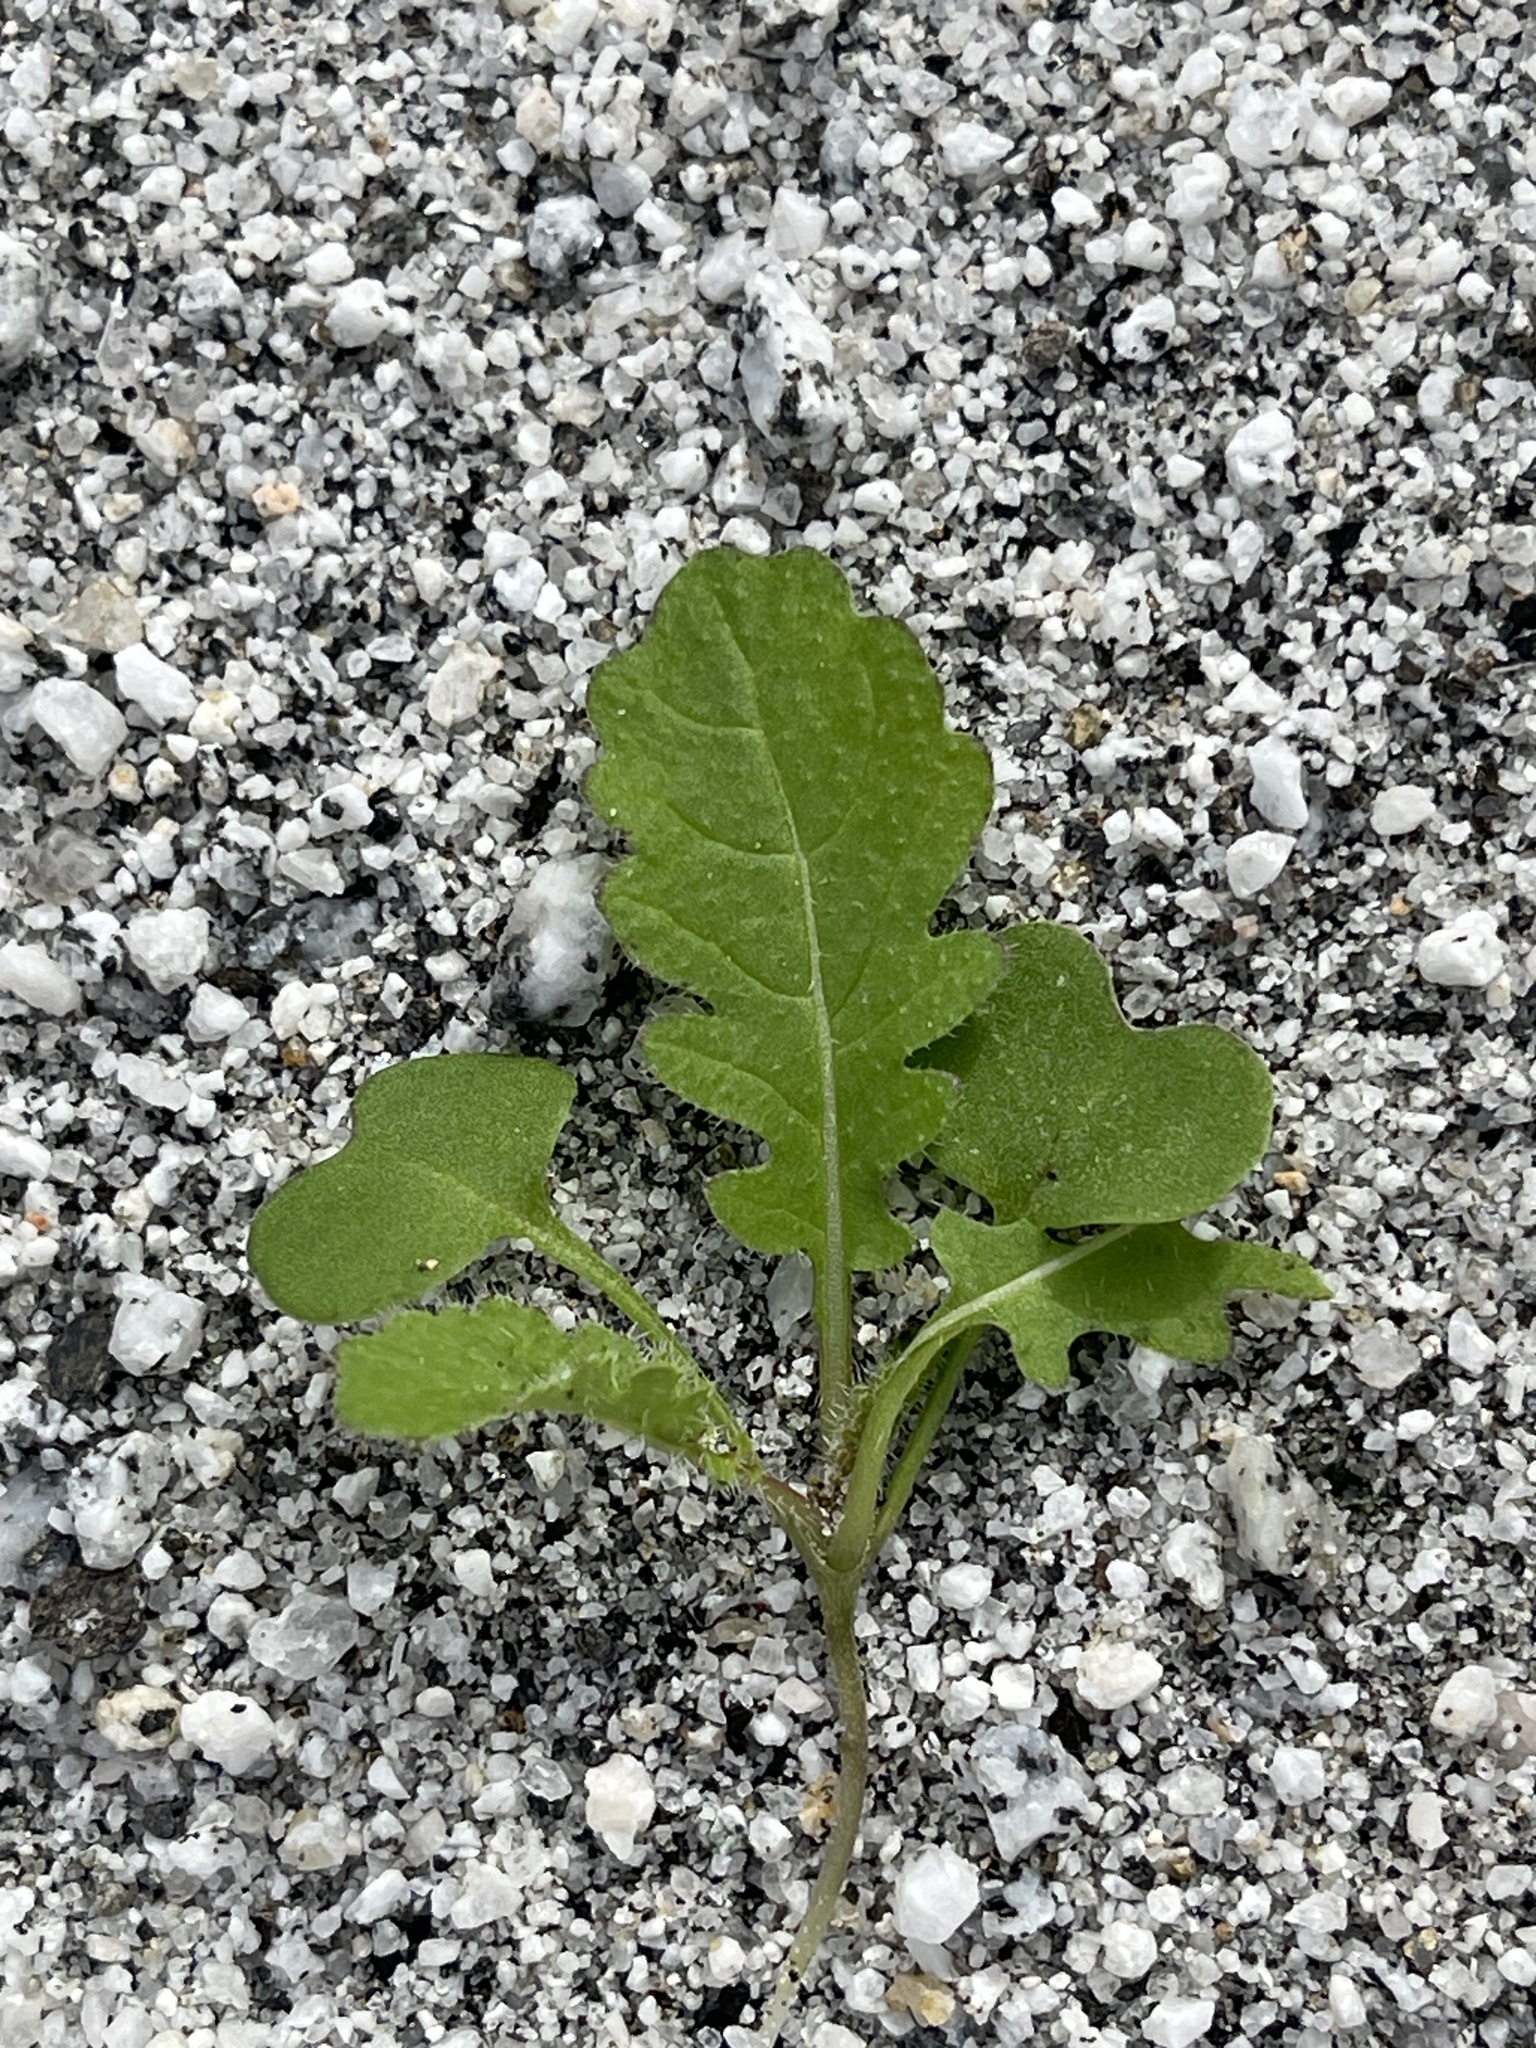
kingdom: Plantae
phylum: Tracheophyta
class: Magnoliopsida
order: Brassicales
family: Brassicaceae
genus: Brassica
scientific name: Brassica tournefortii
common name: Pale cabbage
